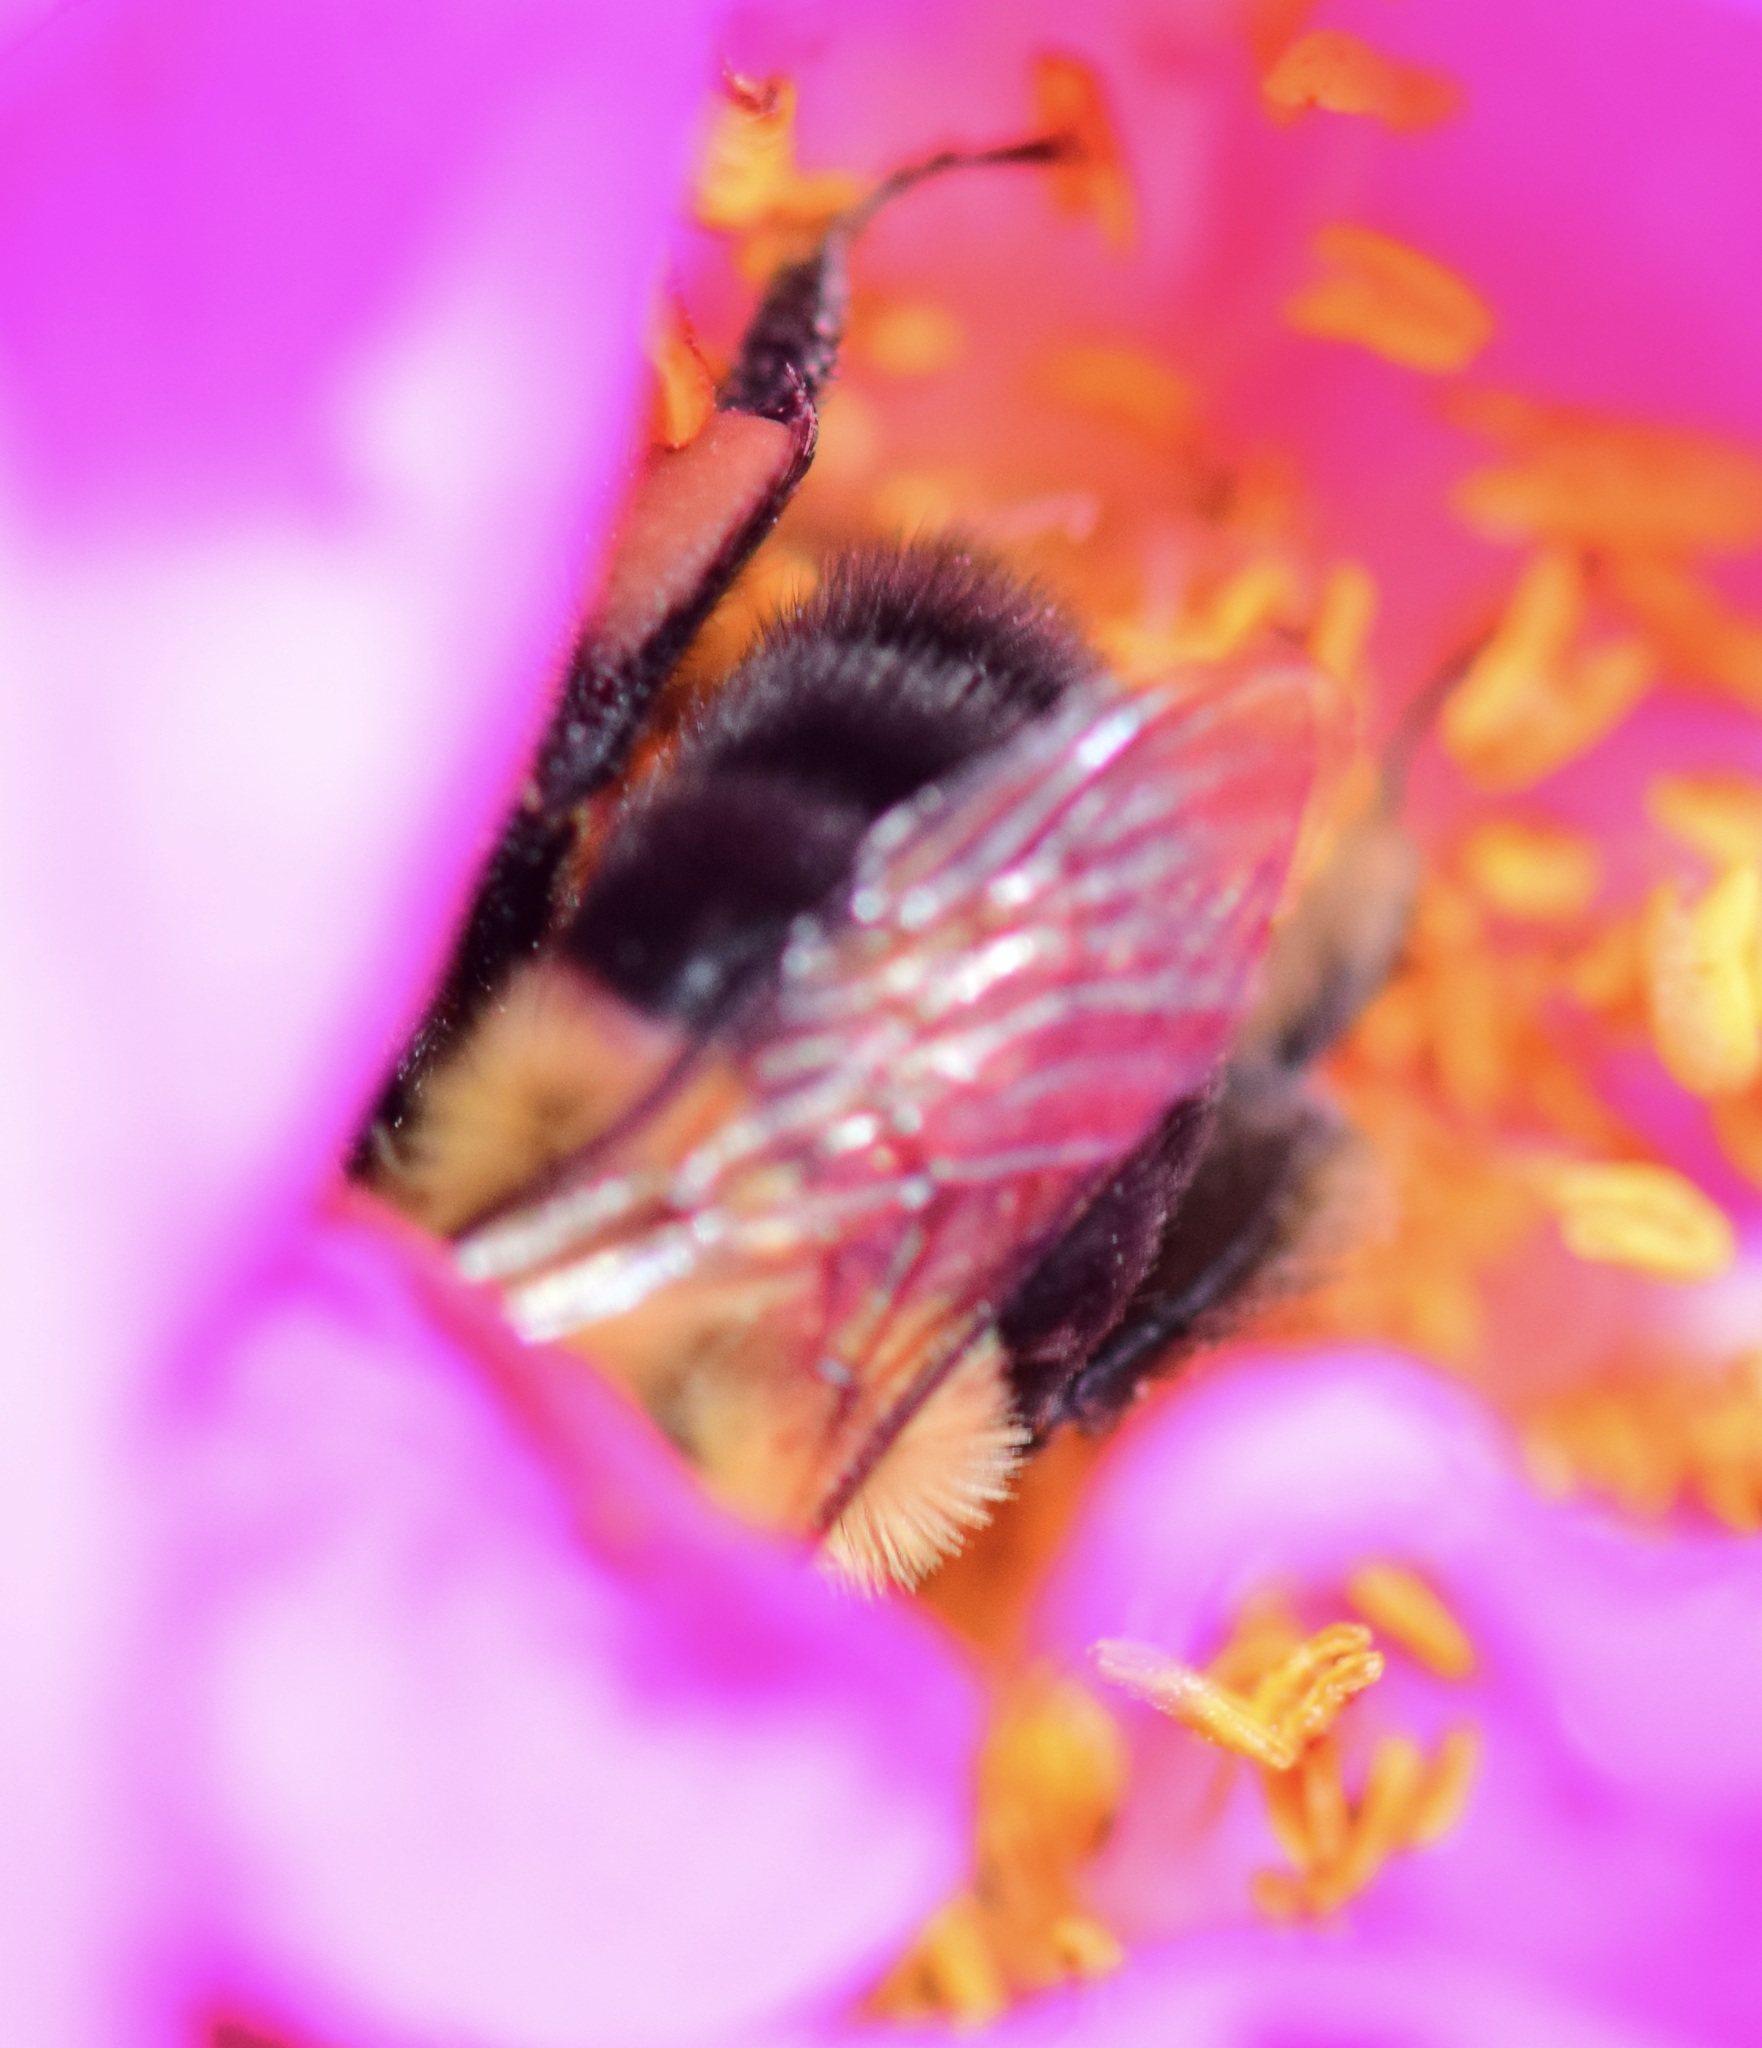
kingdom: Animalia
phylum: Arthropoda
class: Insecta
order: Hymenoptera
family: Apidae
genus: Bombus
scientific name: Bombus impatiens
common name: Common eastern bumble bee
